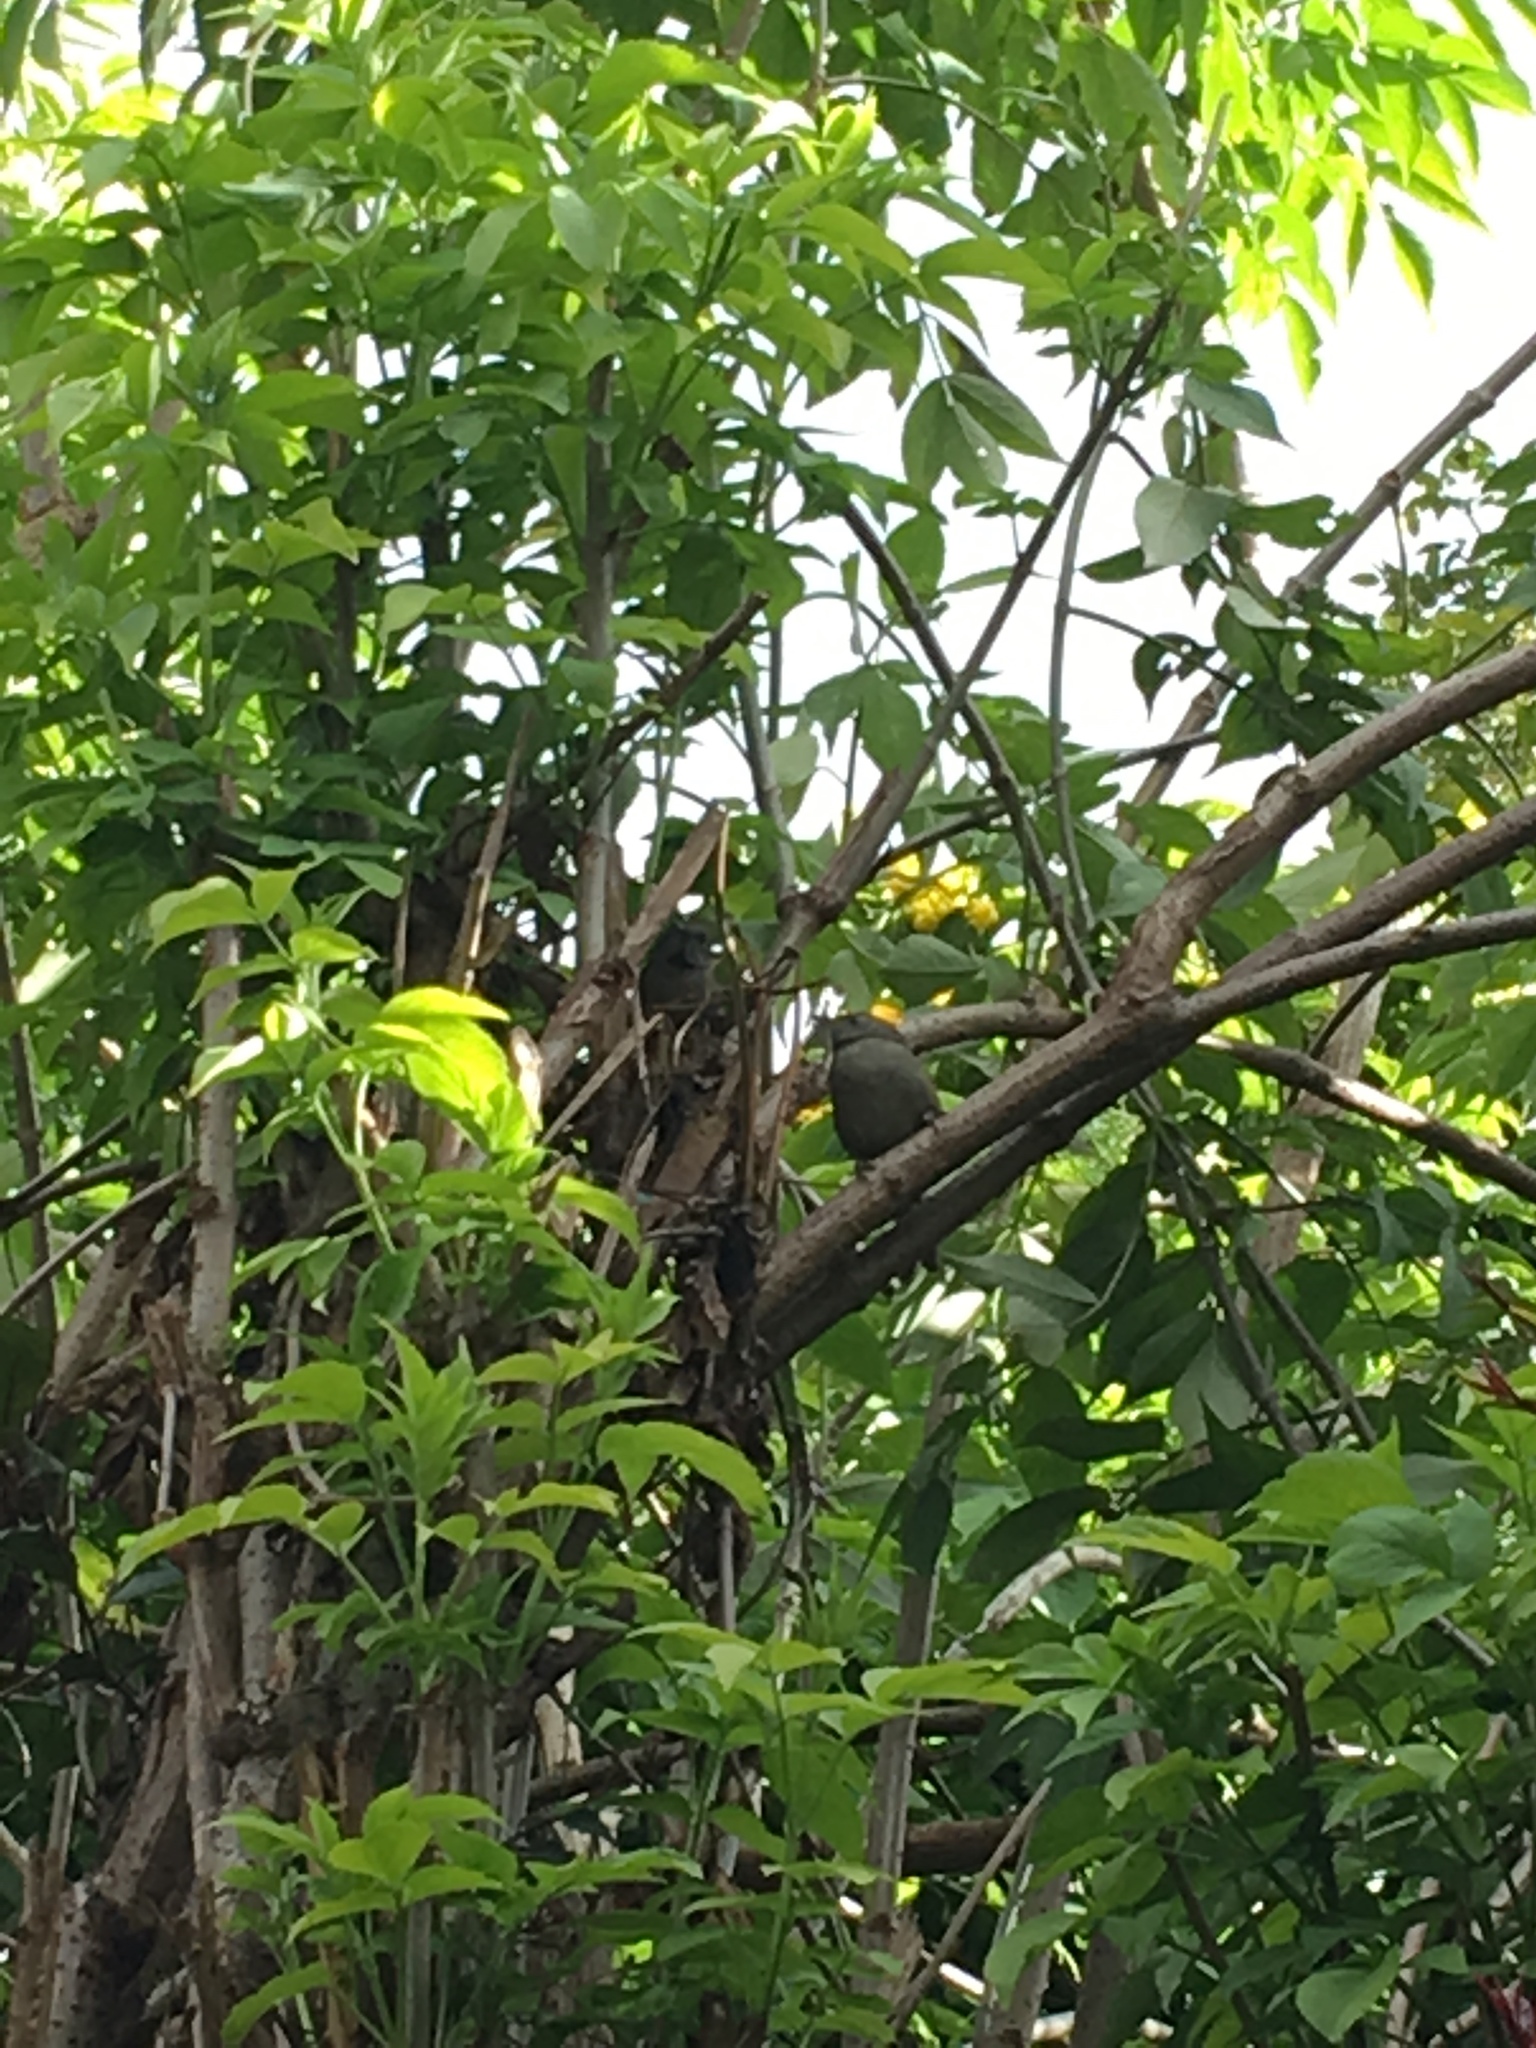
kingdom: Animalia
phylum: Chordata
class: Aves
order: Passeriformes
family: Furnariidae
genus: Synallaxis
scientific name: Synallaxis subpudica
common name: Silvery-throated spinetail
